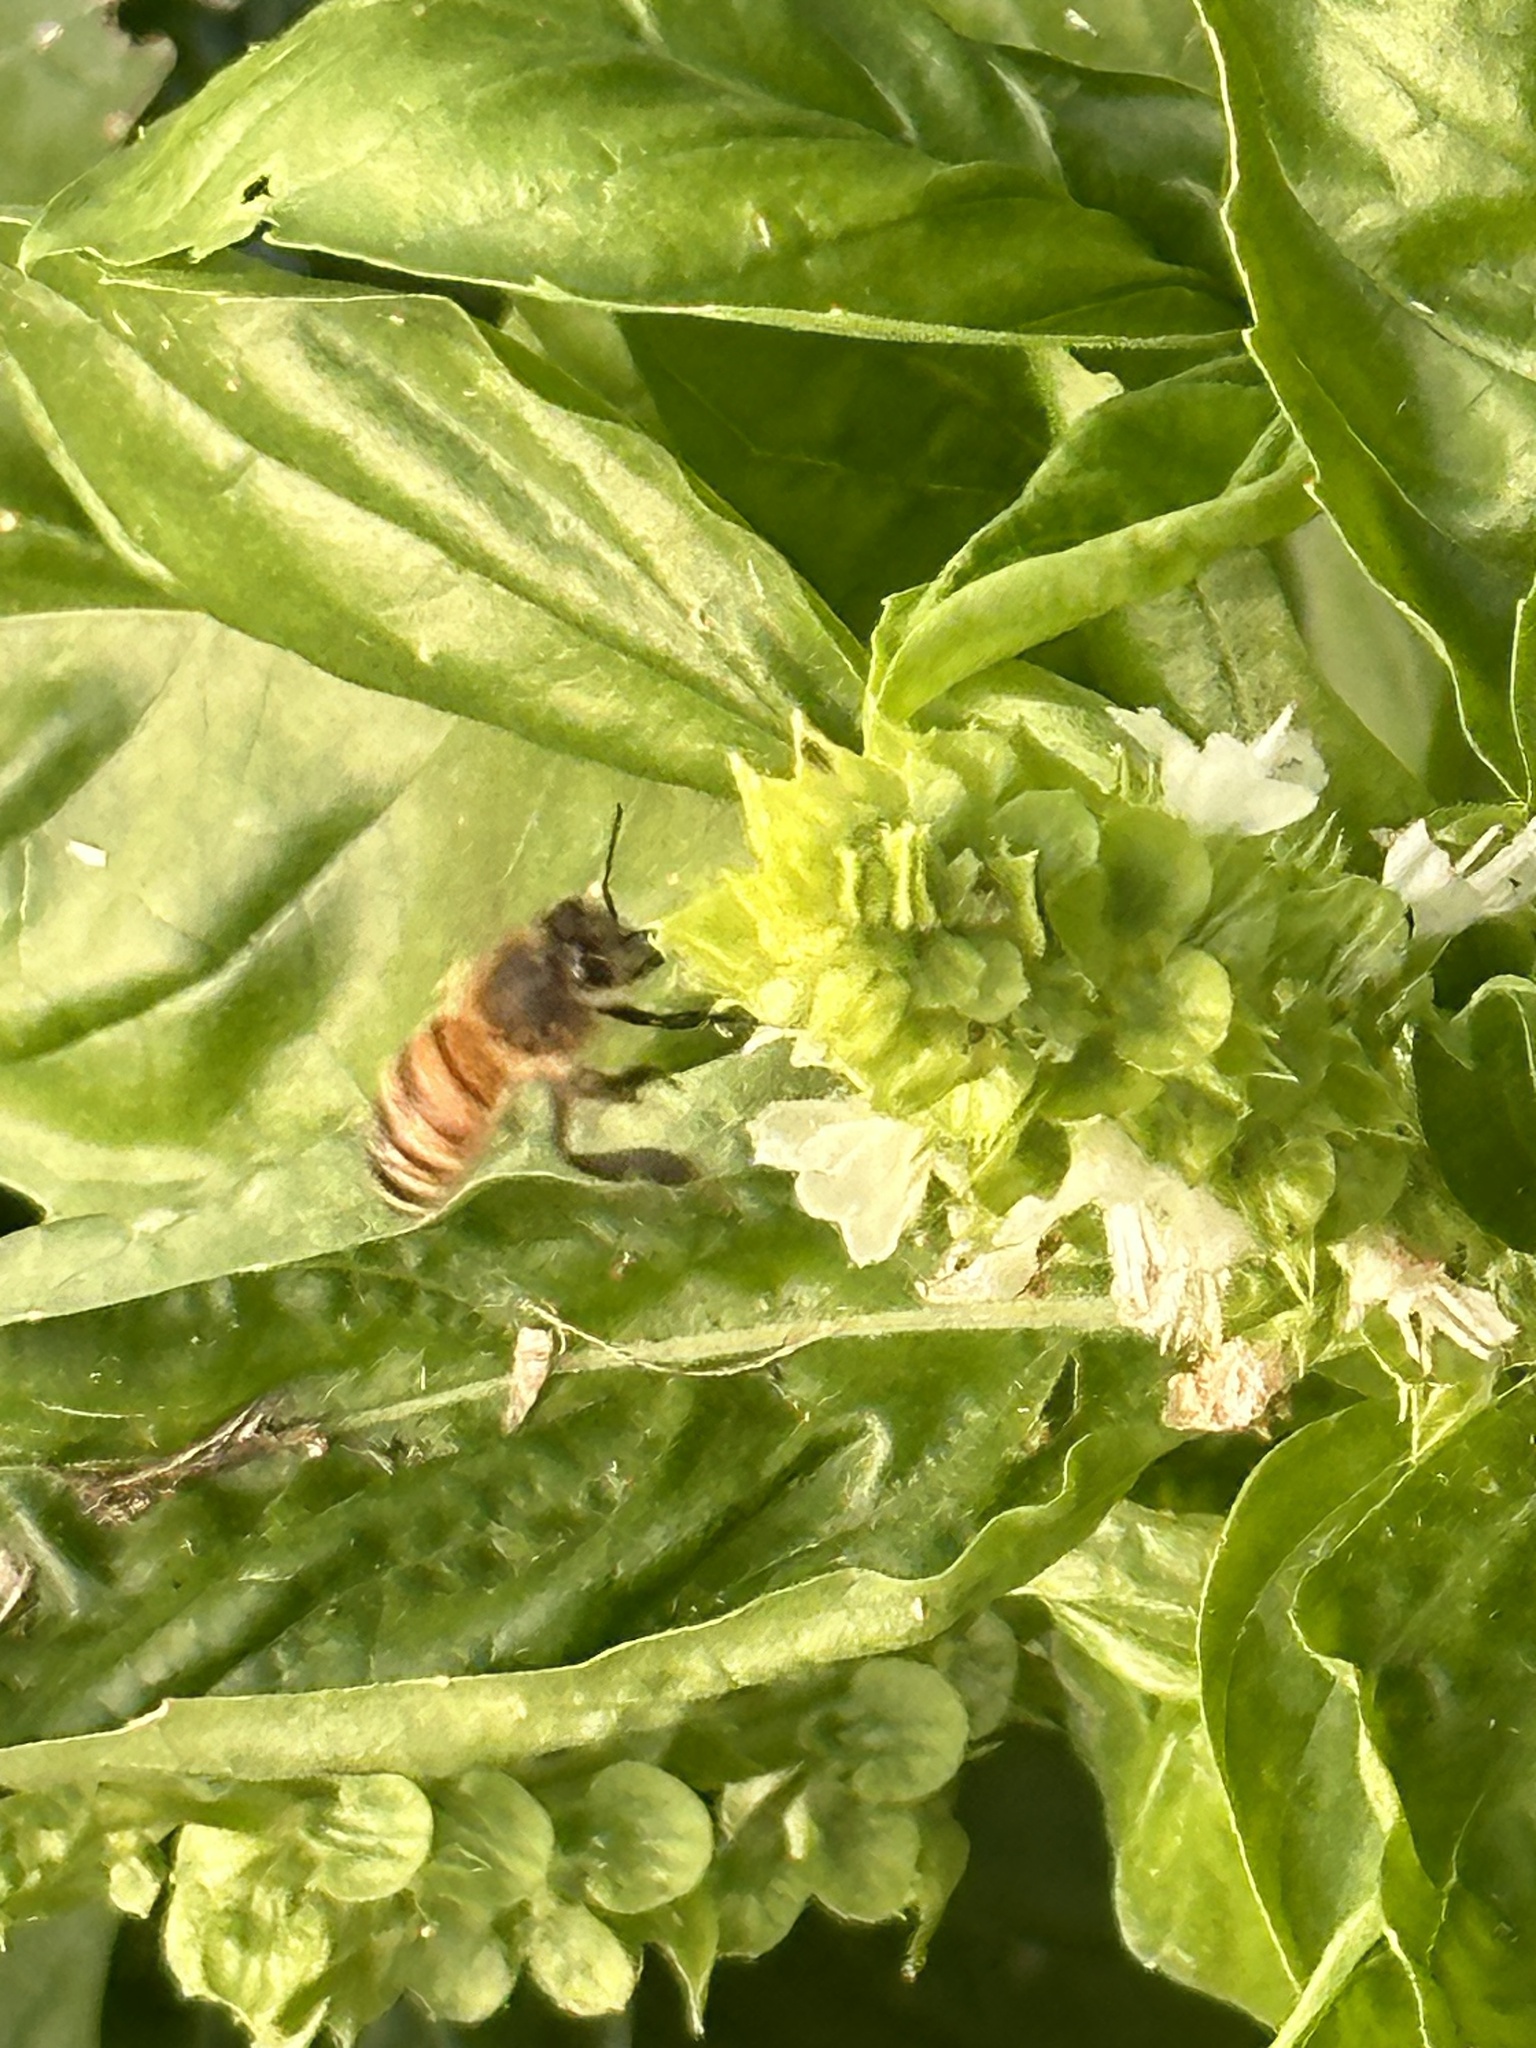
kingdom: Animalia
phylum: Arthropoda
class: Insecta
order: Hymenoptera
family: Apidae
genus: Apis
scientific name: Apis mellifera
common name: Honey bee
